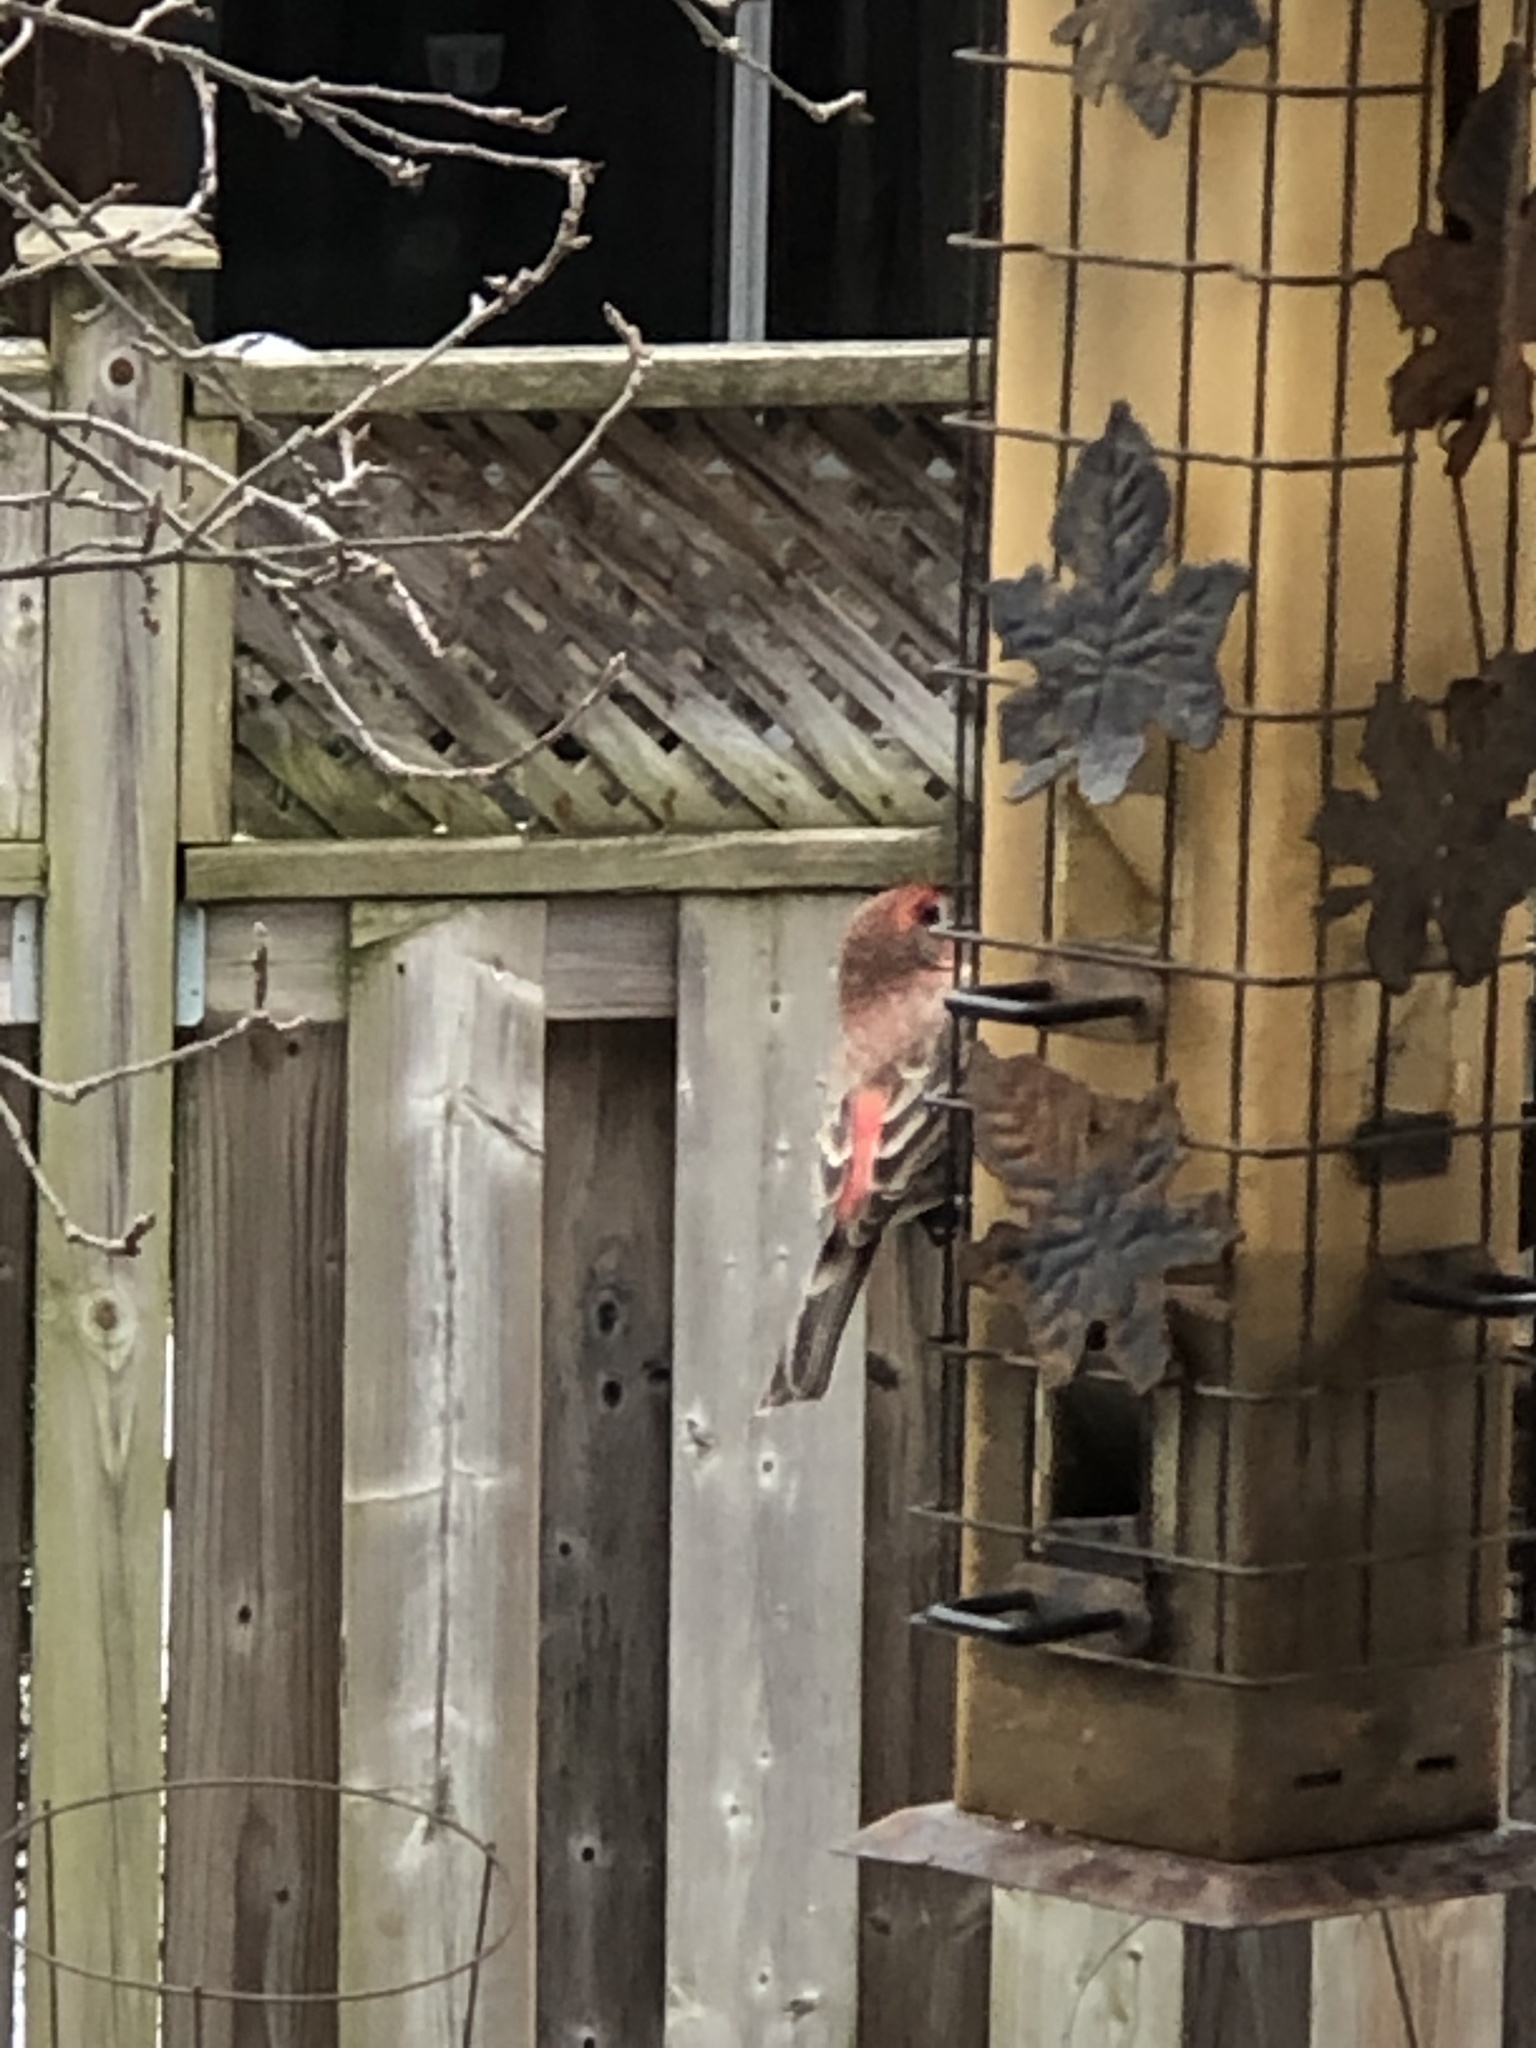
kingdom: Animalia
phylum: Chordata
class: Aves
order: Passeriformes
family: Fringillidae
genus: Haemorhous
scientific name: Haemorhous mexicanus
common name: House finch
